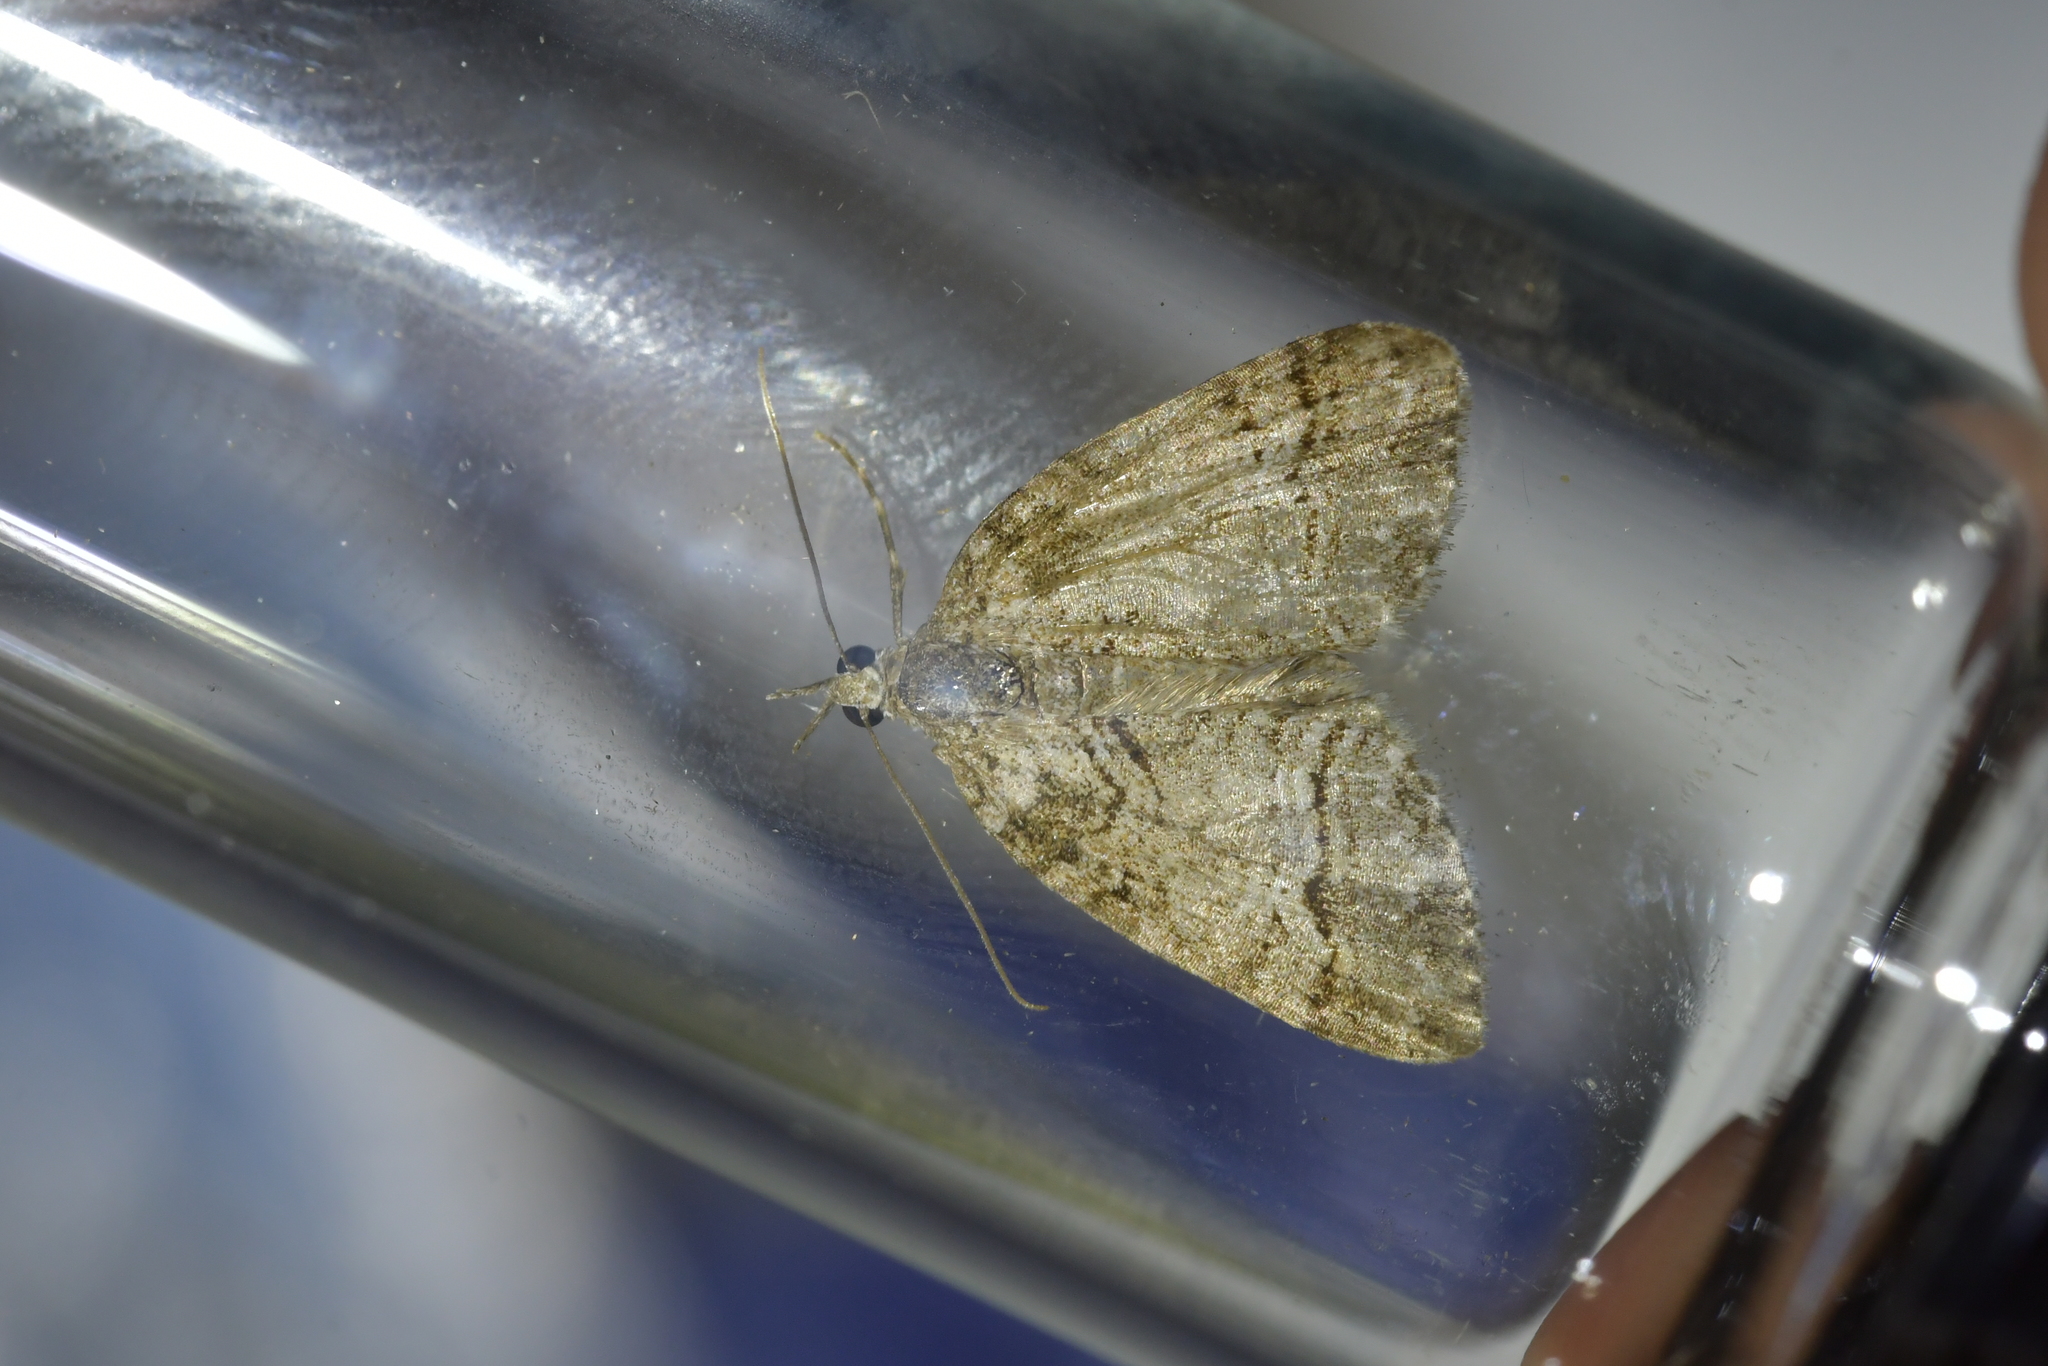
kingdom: Animalia
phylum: Arthropoda
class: Insecta
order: Lepidoptera
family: Geometridae
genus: Microdes
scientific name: Microdes quadristrigata
